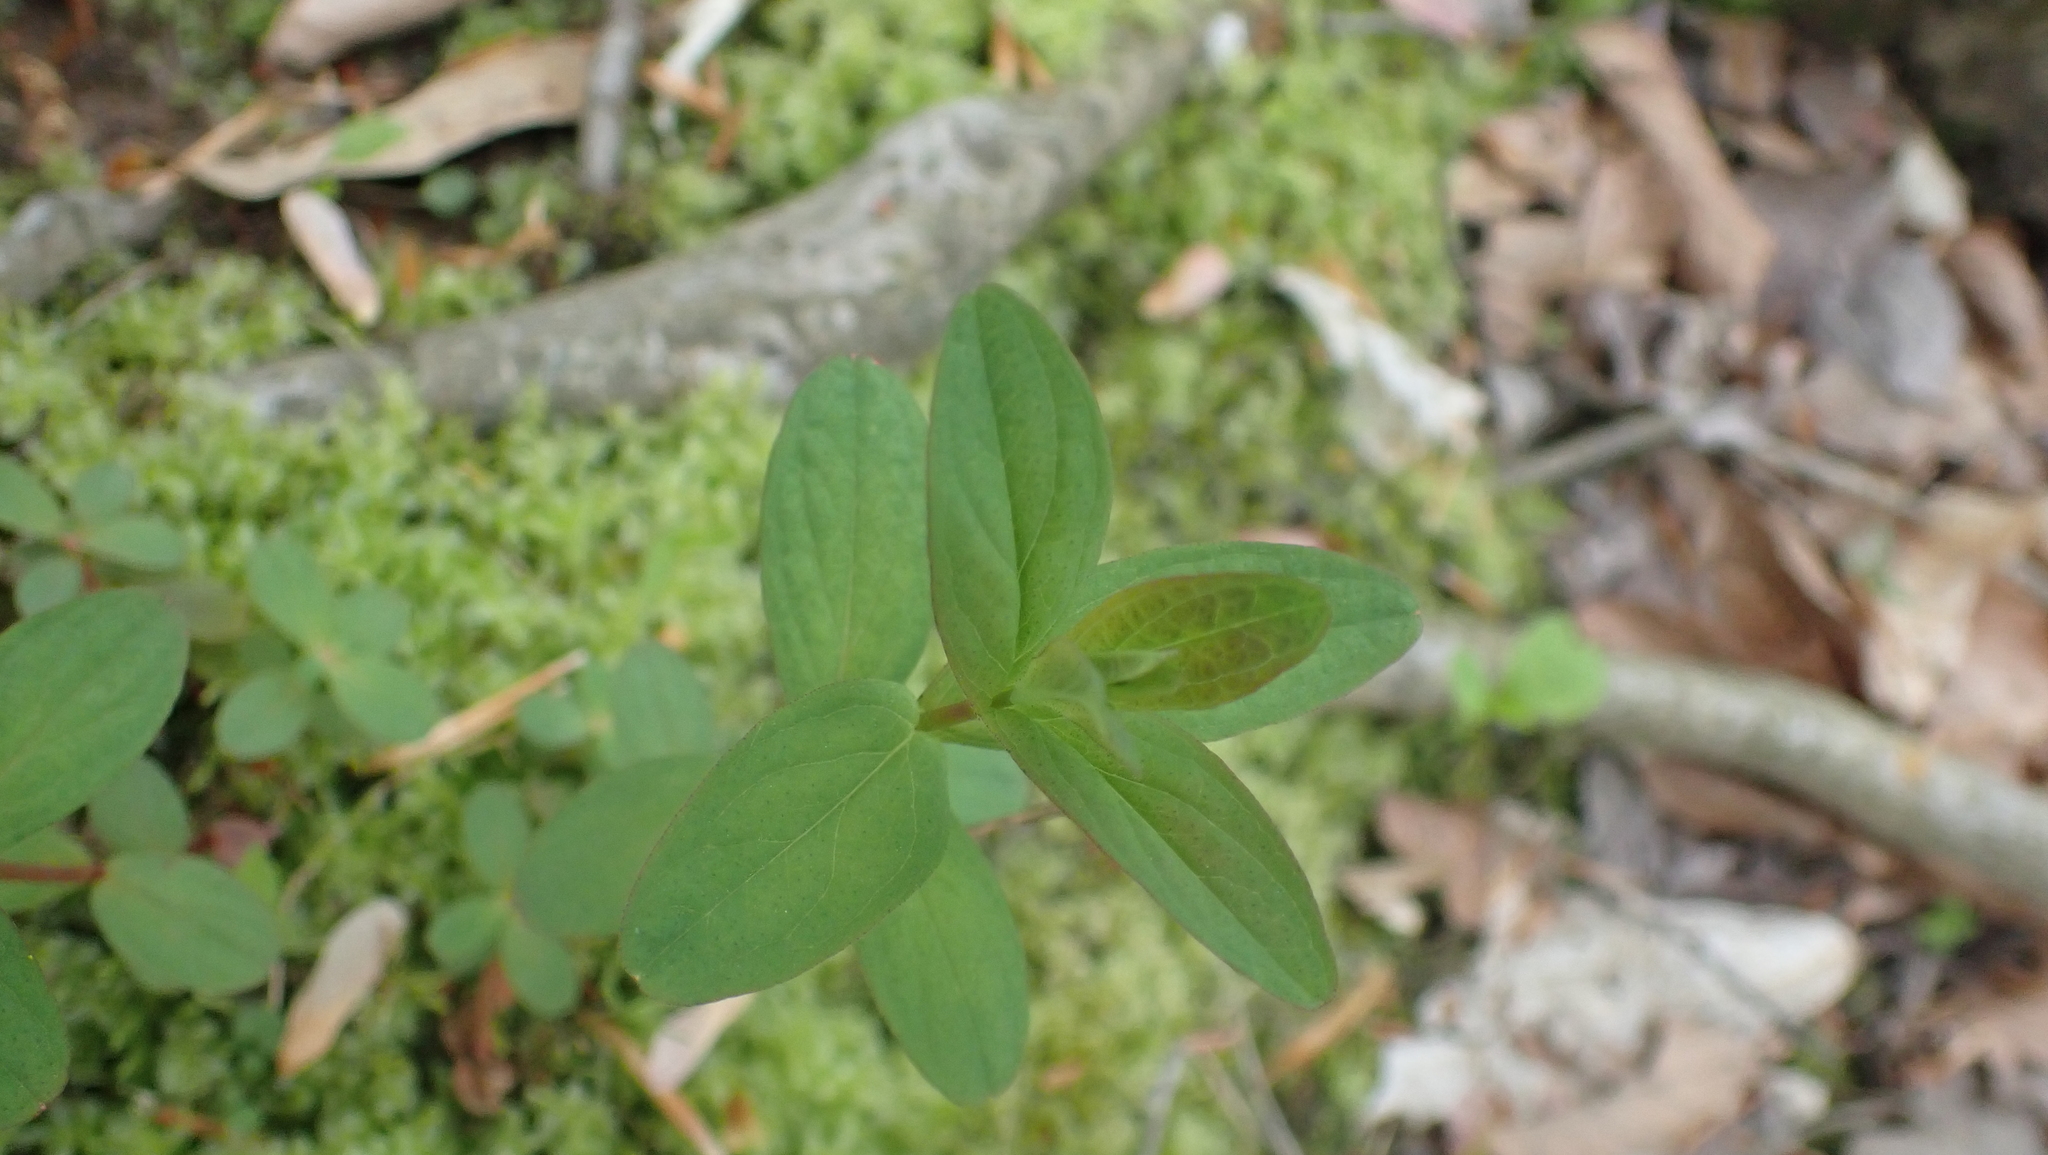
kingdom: Plantae
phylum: Tracheophyta
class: Magnoliopsida
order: Malpighiales
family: Hypericaceae
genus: Hypericum
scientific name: Hypericum punctatum
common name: Spotted st. john's-wort
